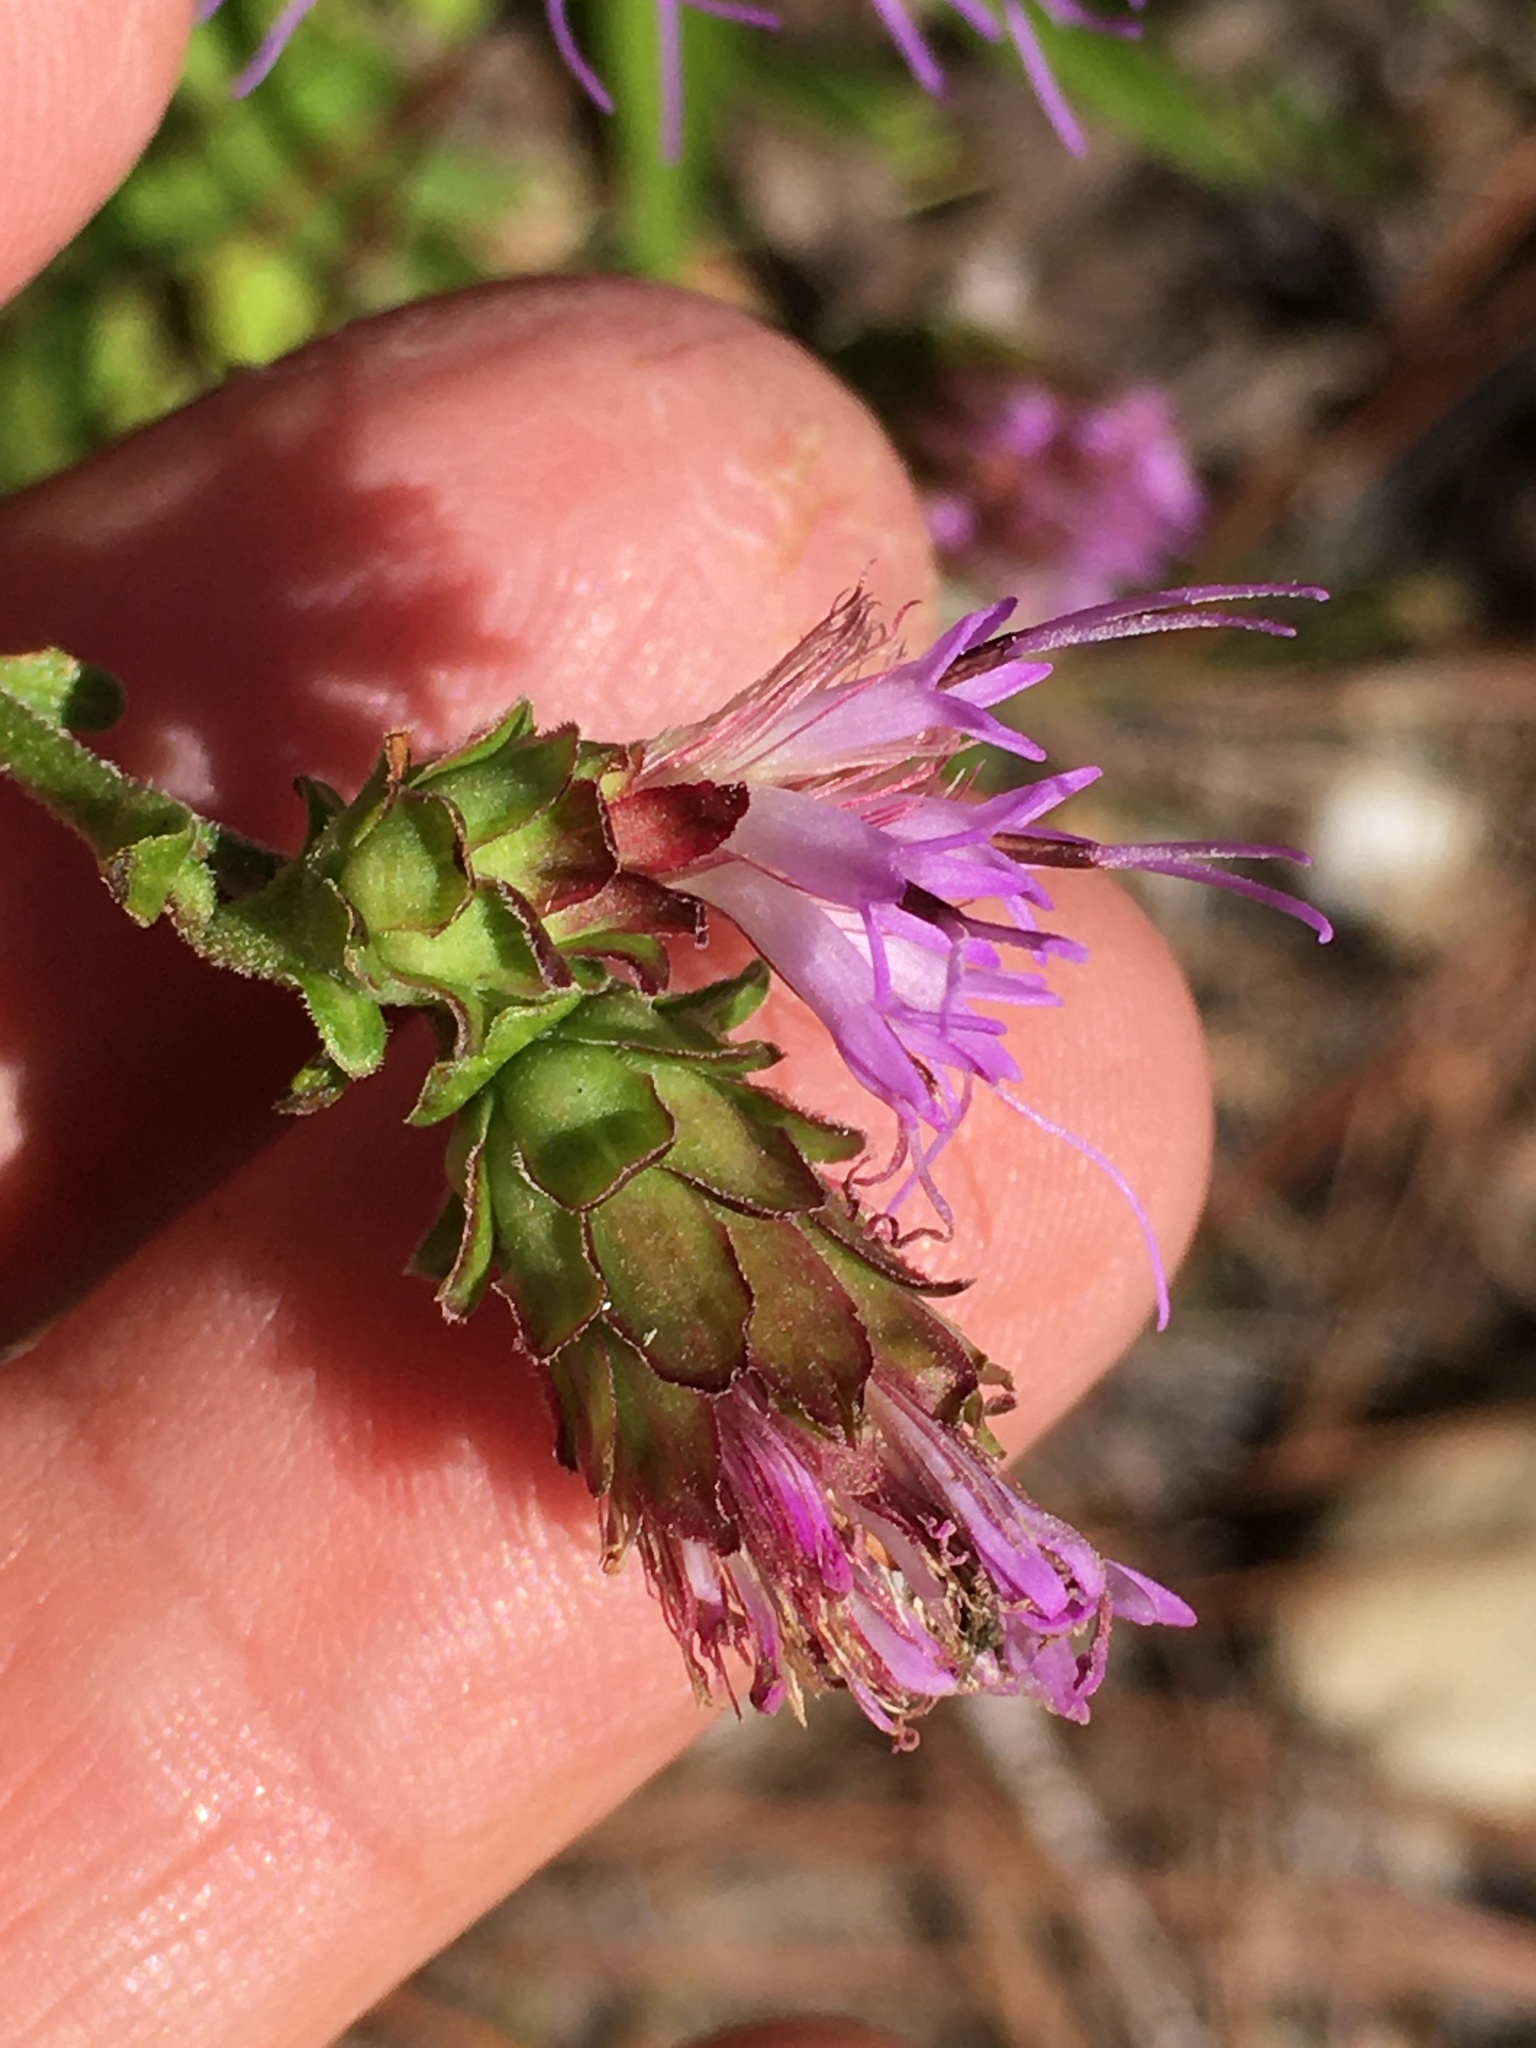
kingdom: Plantae
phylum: Tracheophyta
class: Magnoliopsida
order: Asterales
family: Asteraceae
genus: Carphephorus
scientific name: Carphephorus bellidifolius
